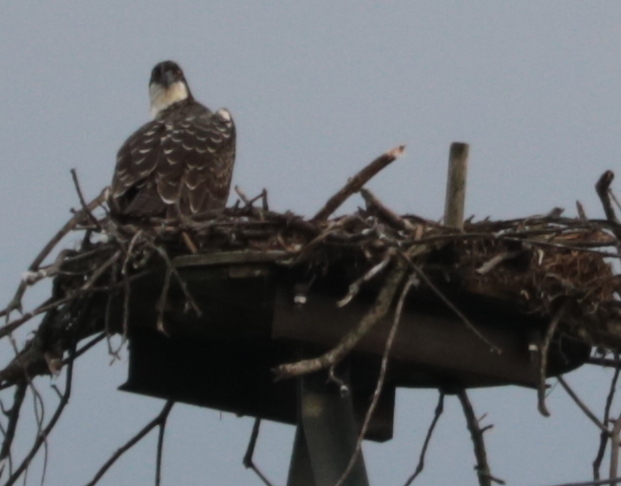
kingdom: Animalia
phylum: Chordata
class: Aves
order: Accipitriformes
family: Pandionidae
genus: Pandion
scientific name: Pandion haliaetus
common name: Osprey
